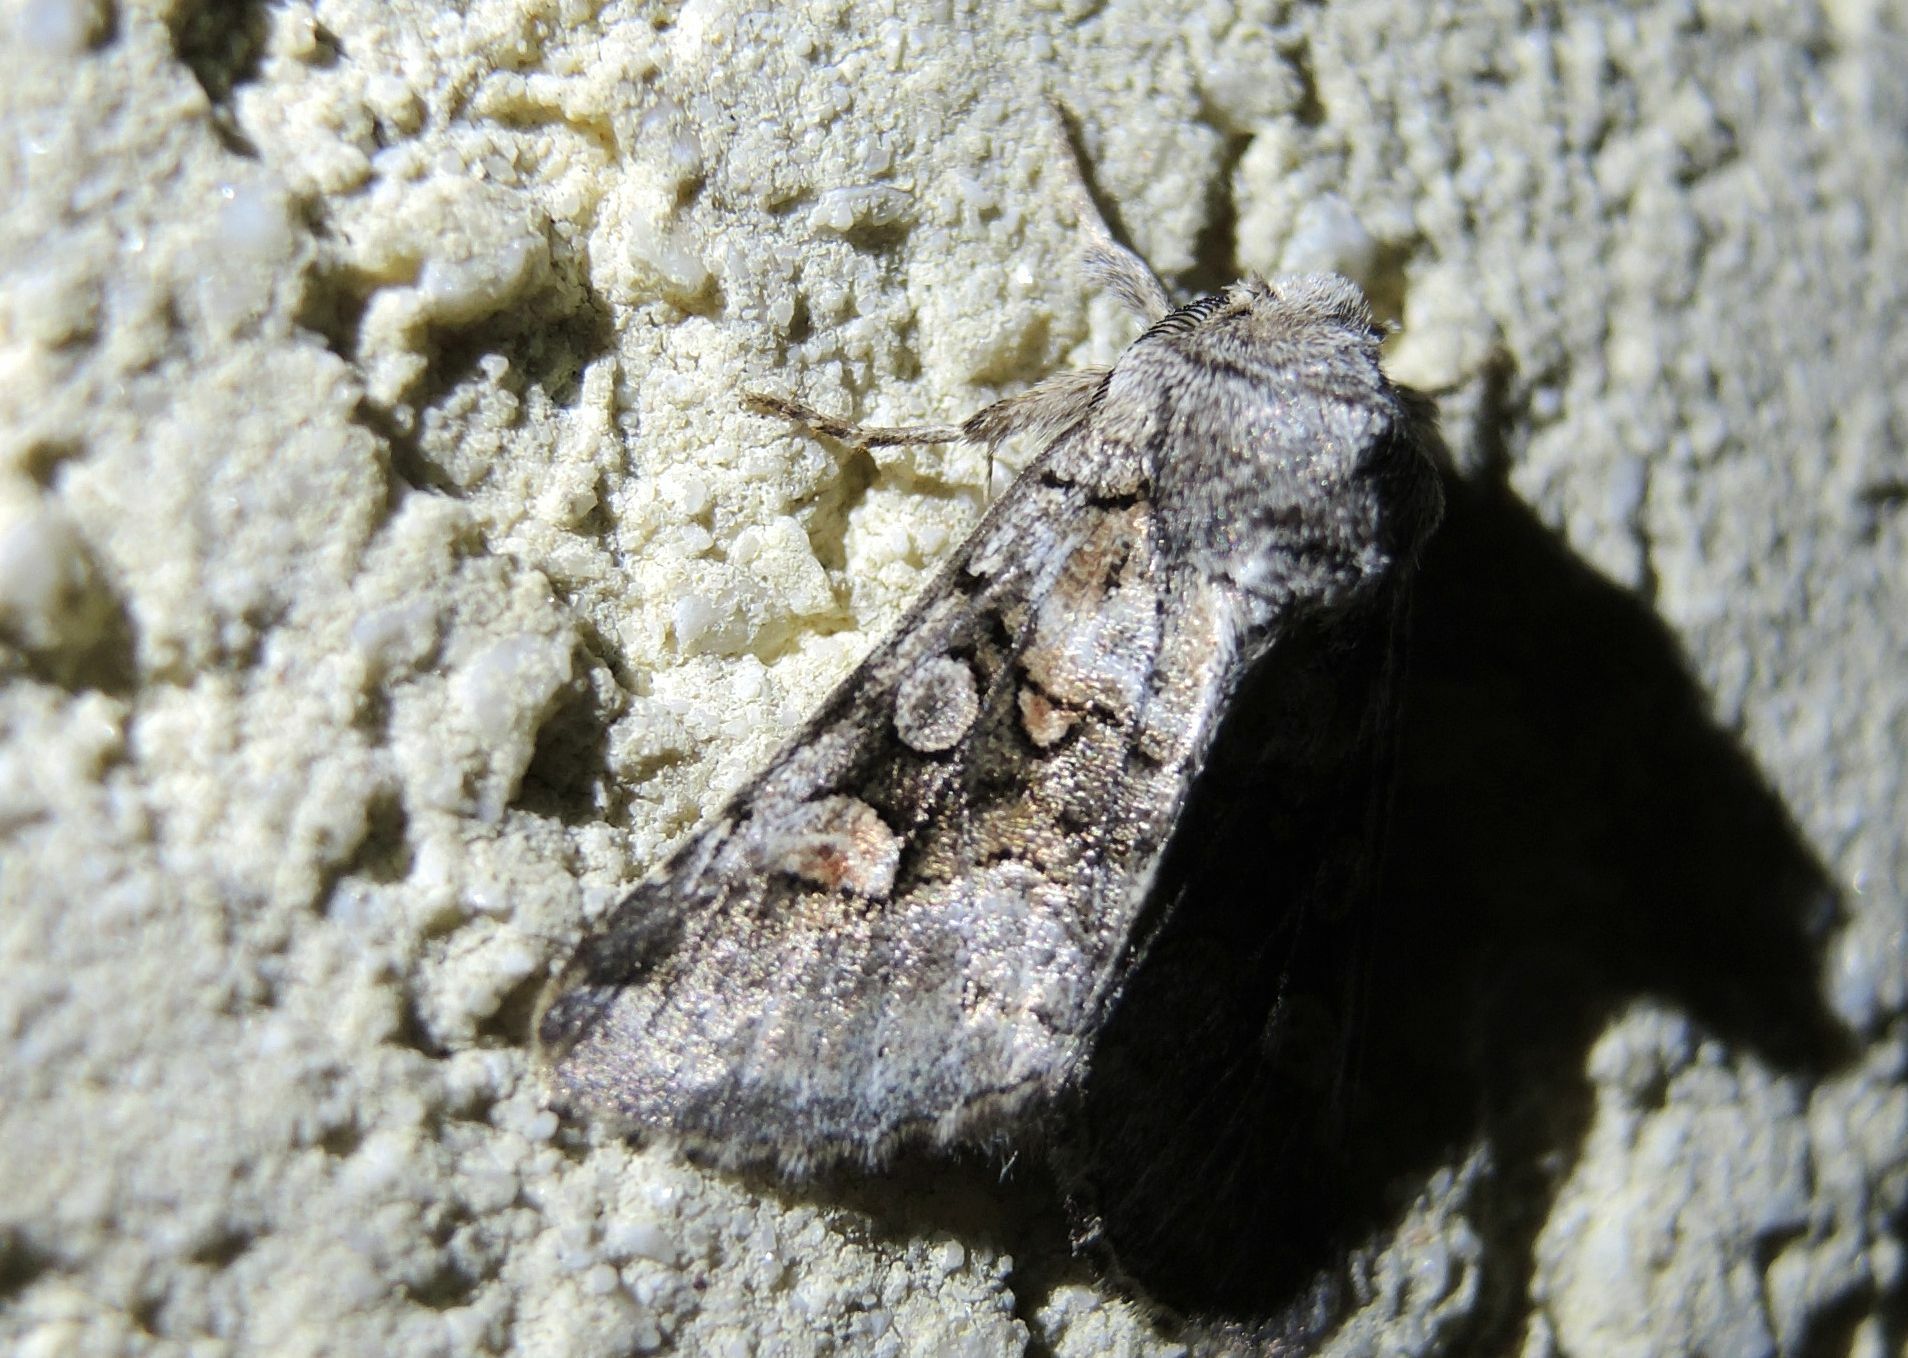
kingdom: Animalia
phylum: Arthropoda
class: Insecta
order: Lepidoptera
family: Noctuidae
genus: Cleoceris
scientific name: Cleoceris scoriacea
